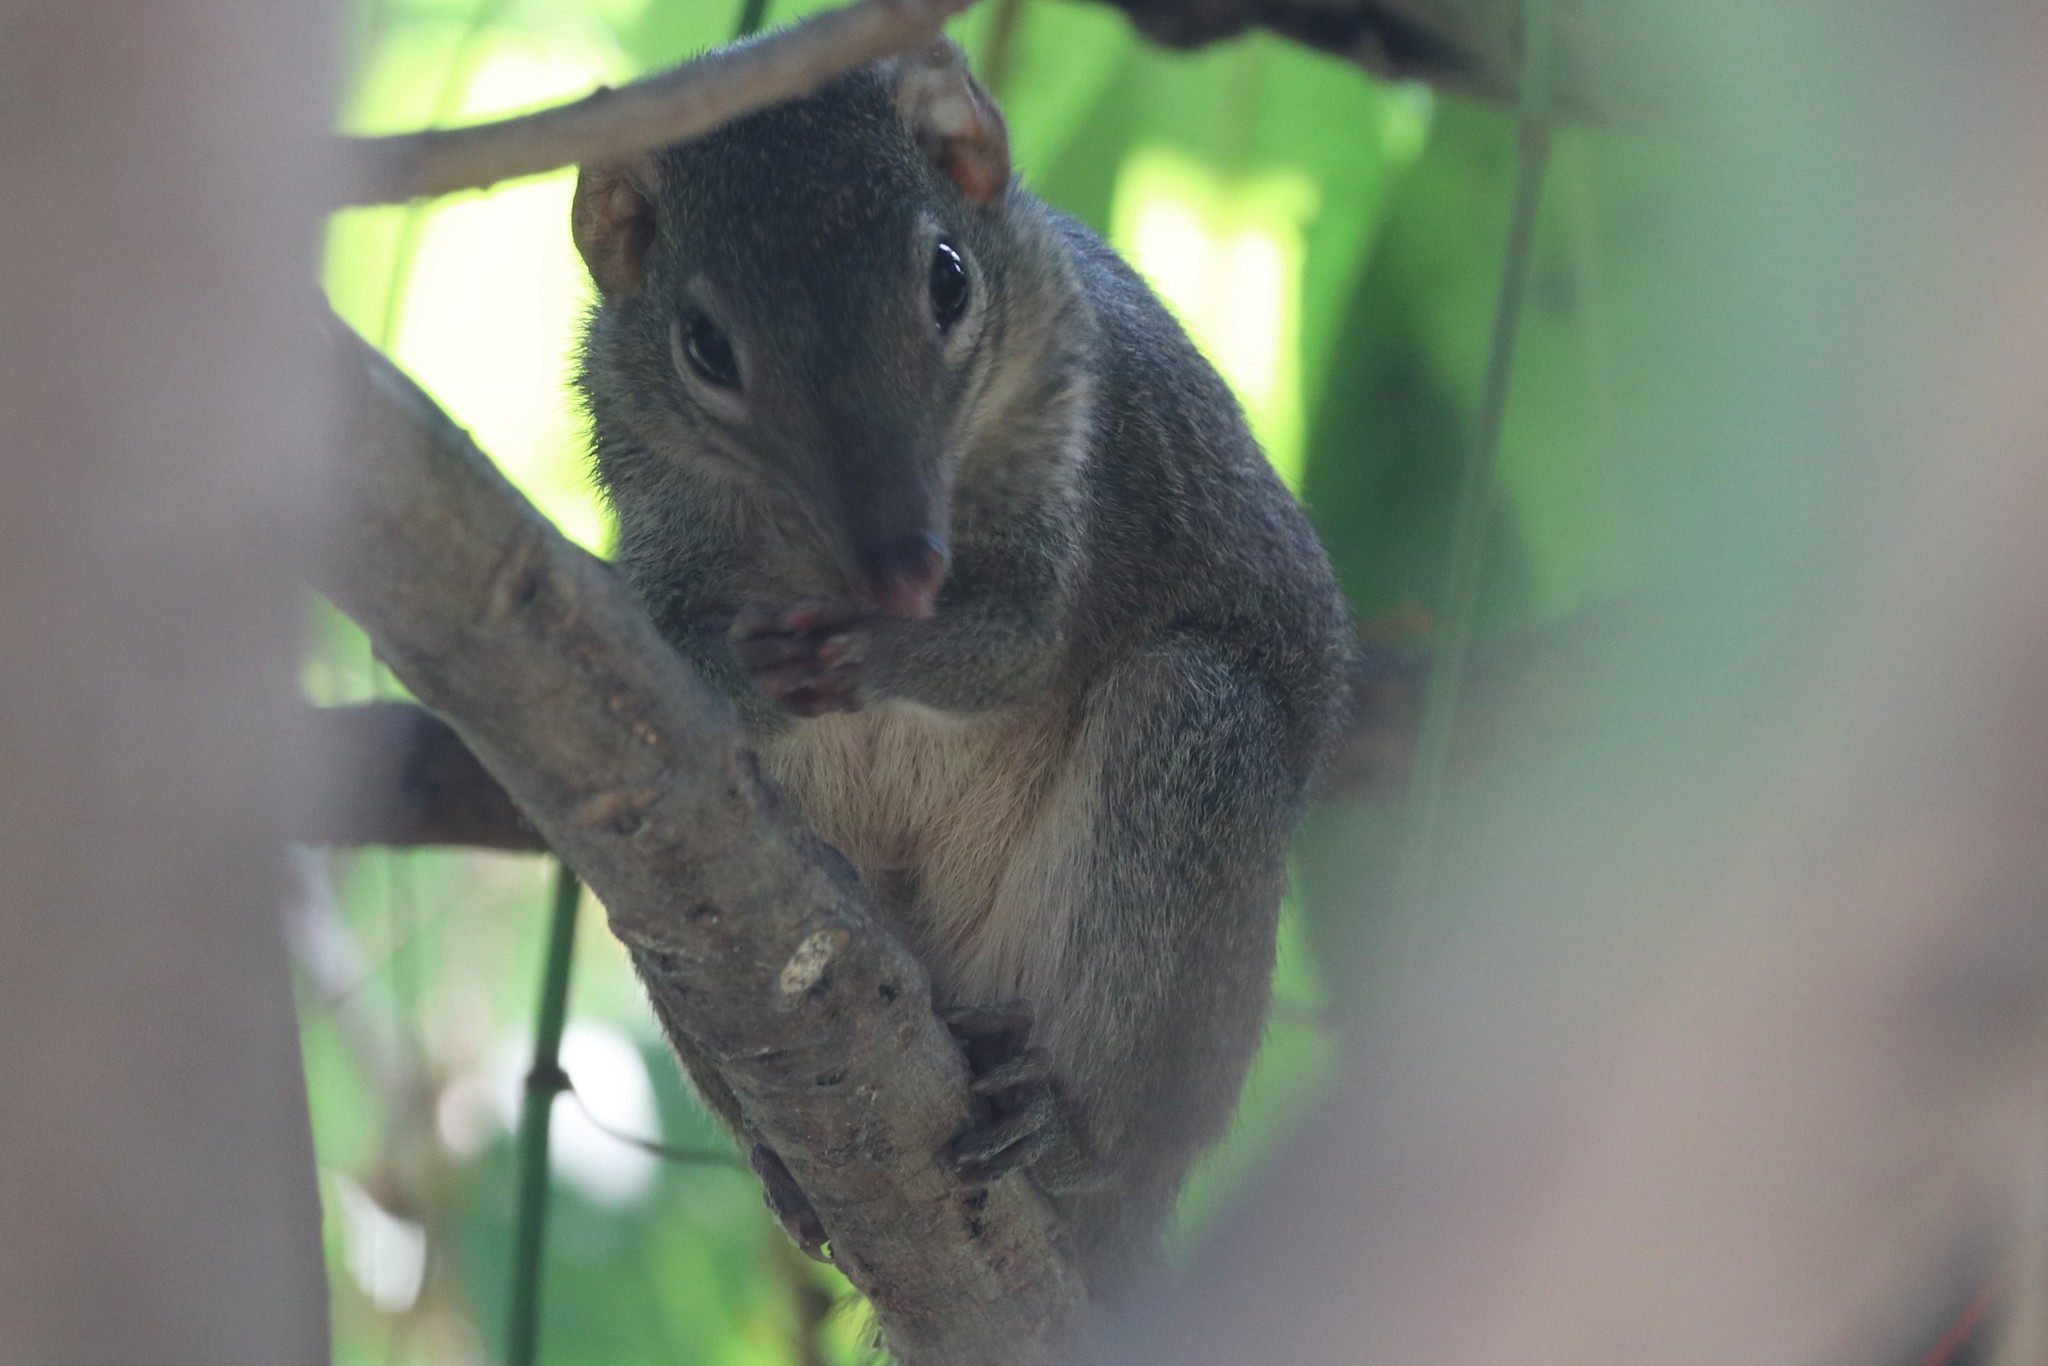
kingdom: Animalia
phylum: Chordata
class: Mammalia
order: Scandentia
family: Tupaiidae
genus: Tupaia
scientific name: Tupaia belangeri
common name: Northern treeshrew
